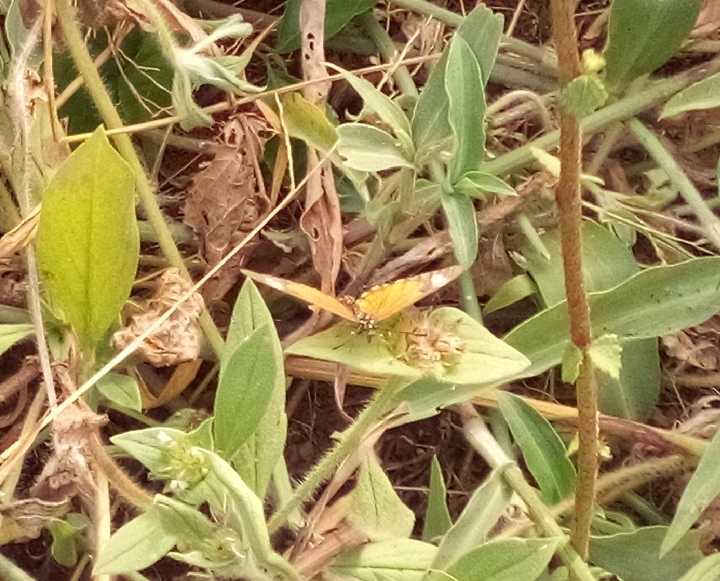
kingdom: Animalia
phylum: Arthropoda
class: Insecta
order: Lepidoptera
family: Nymphalidae
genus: Acraea
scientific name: Acraea Telchinia serena
